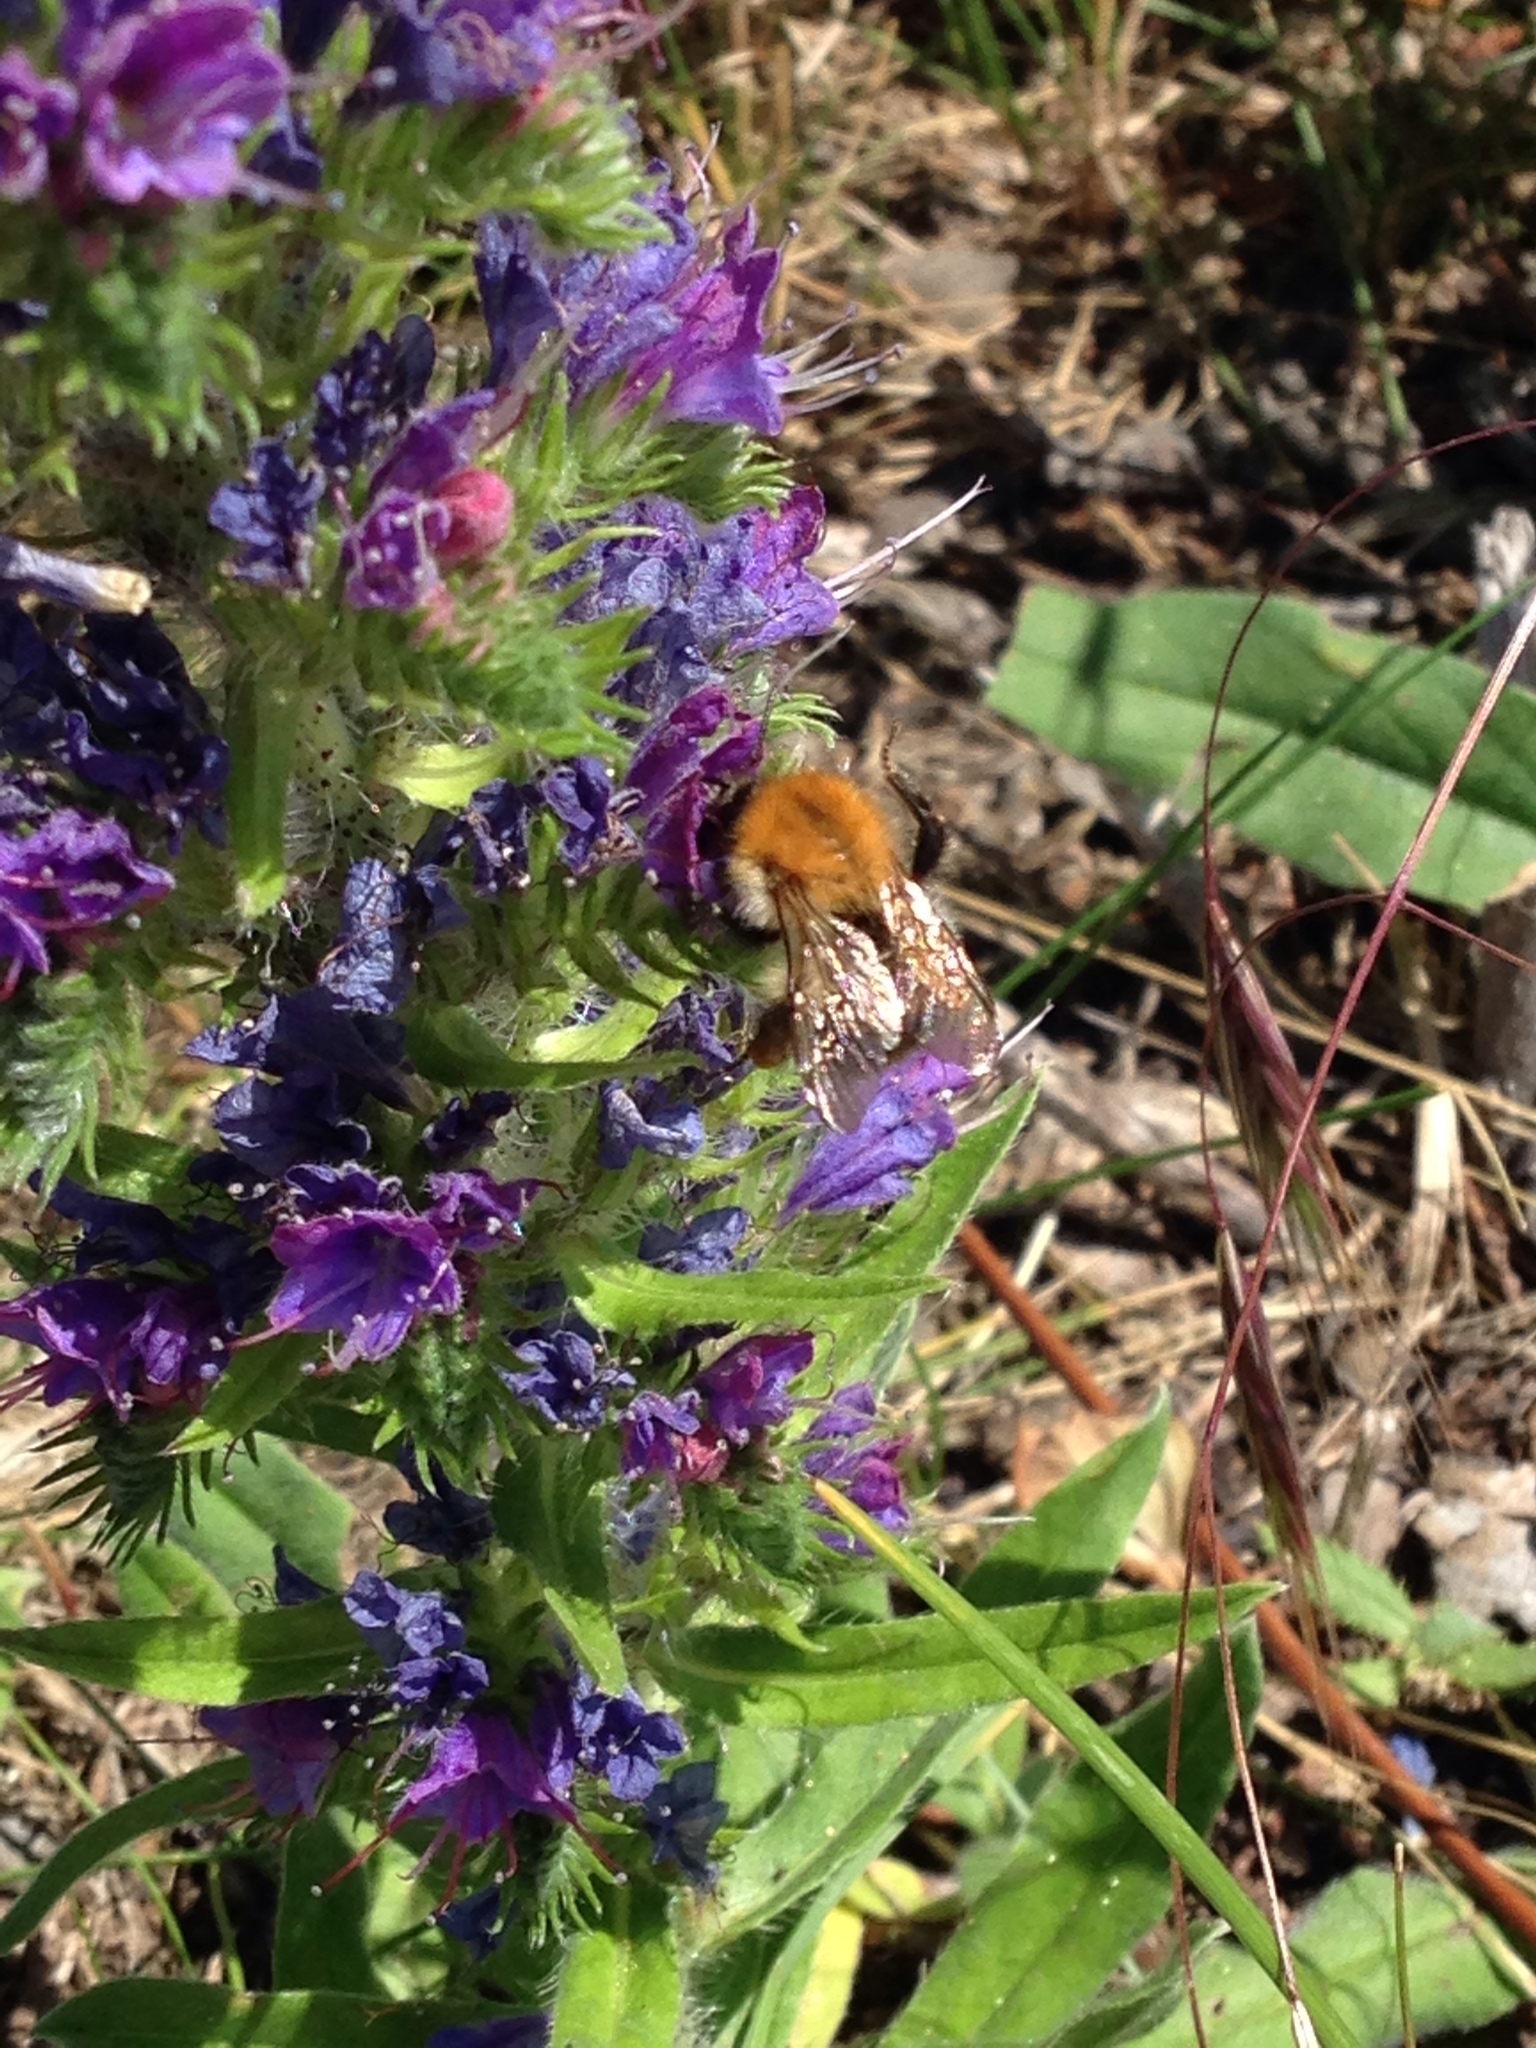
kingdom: Animalia
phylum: Arthropoda
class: Insecta
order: Hymenoptera
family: Apidae
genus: Bombus
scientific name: Bombus pascuorum
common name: Common carder bee
